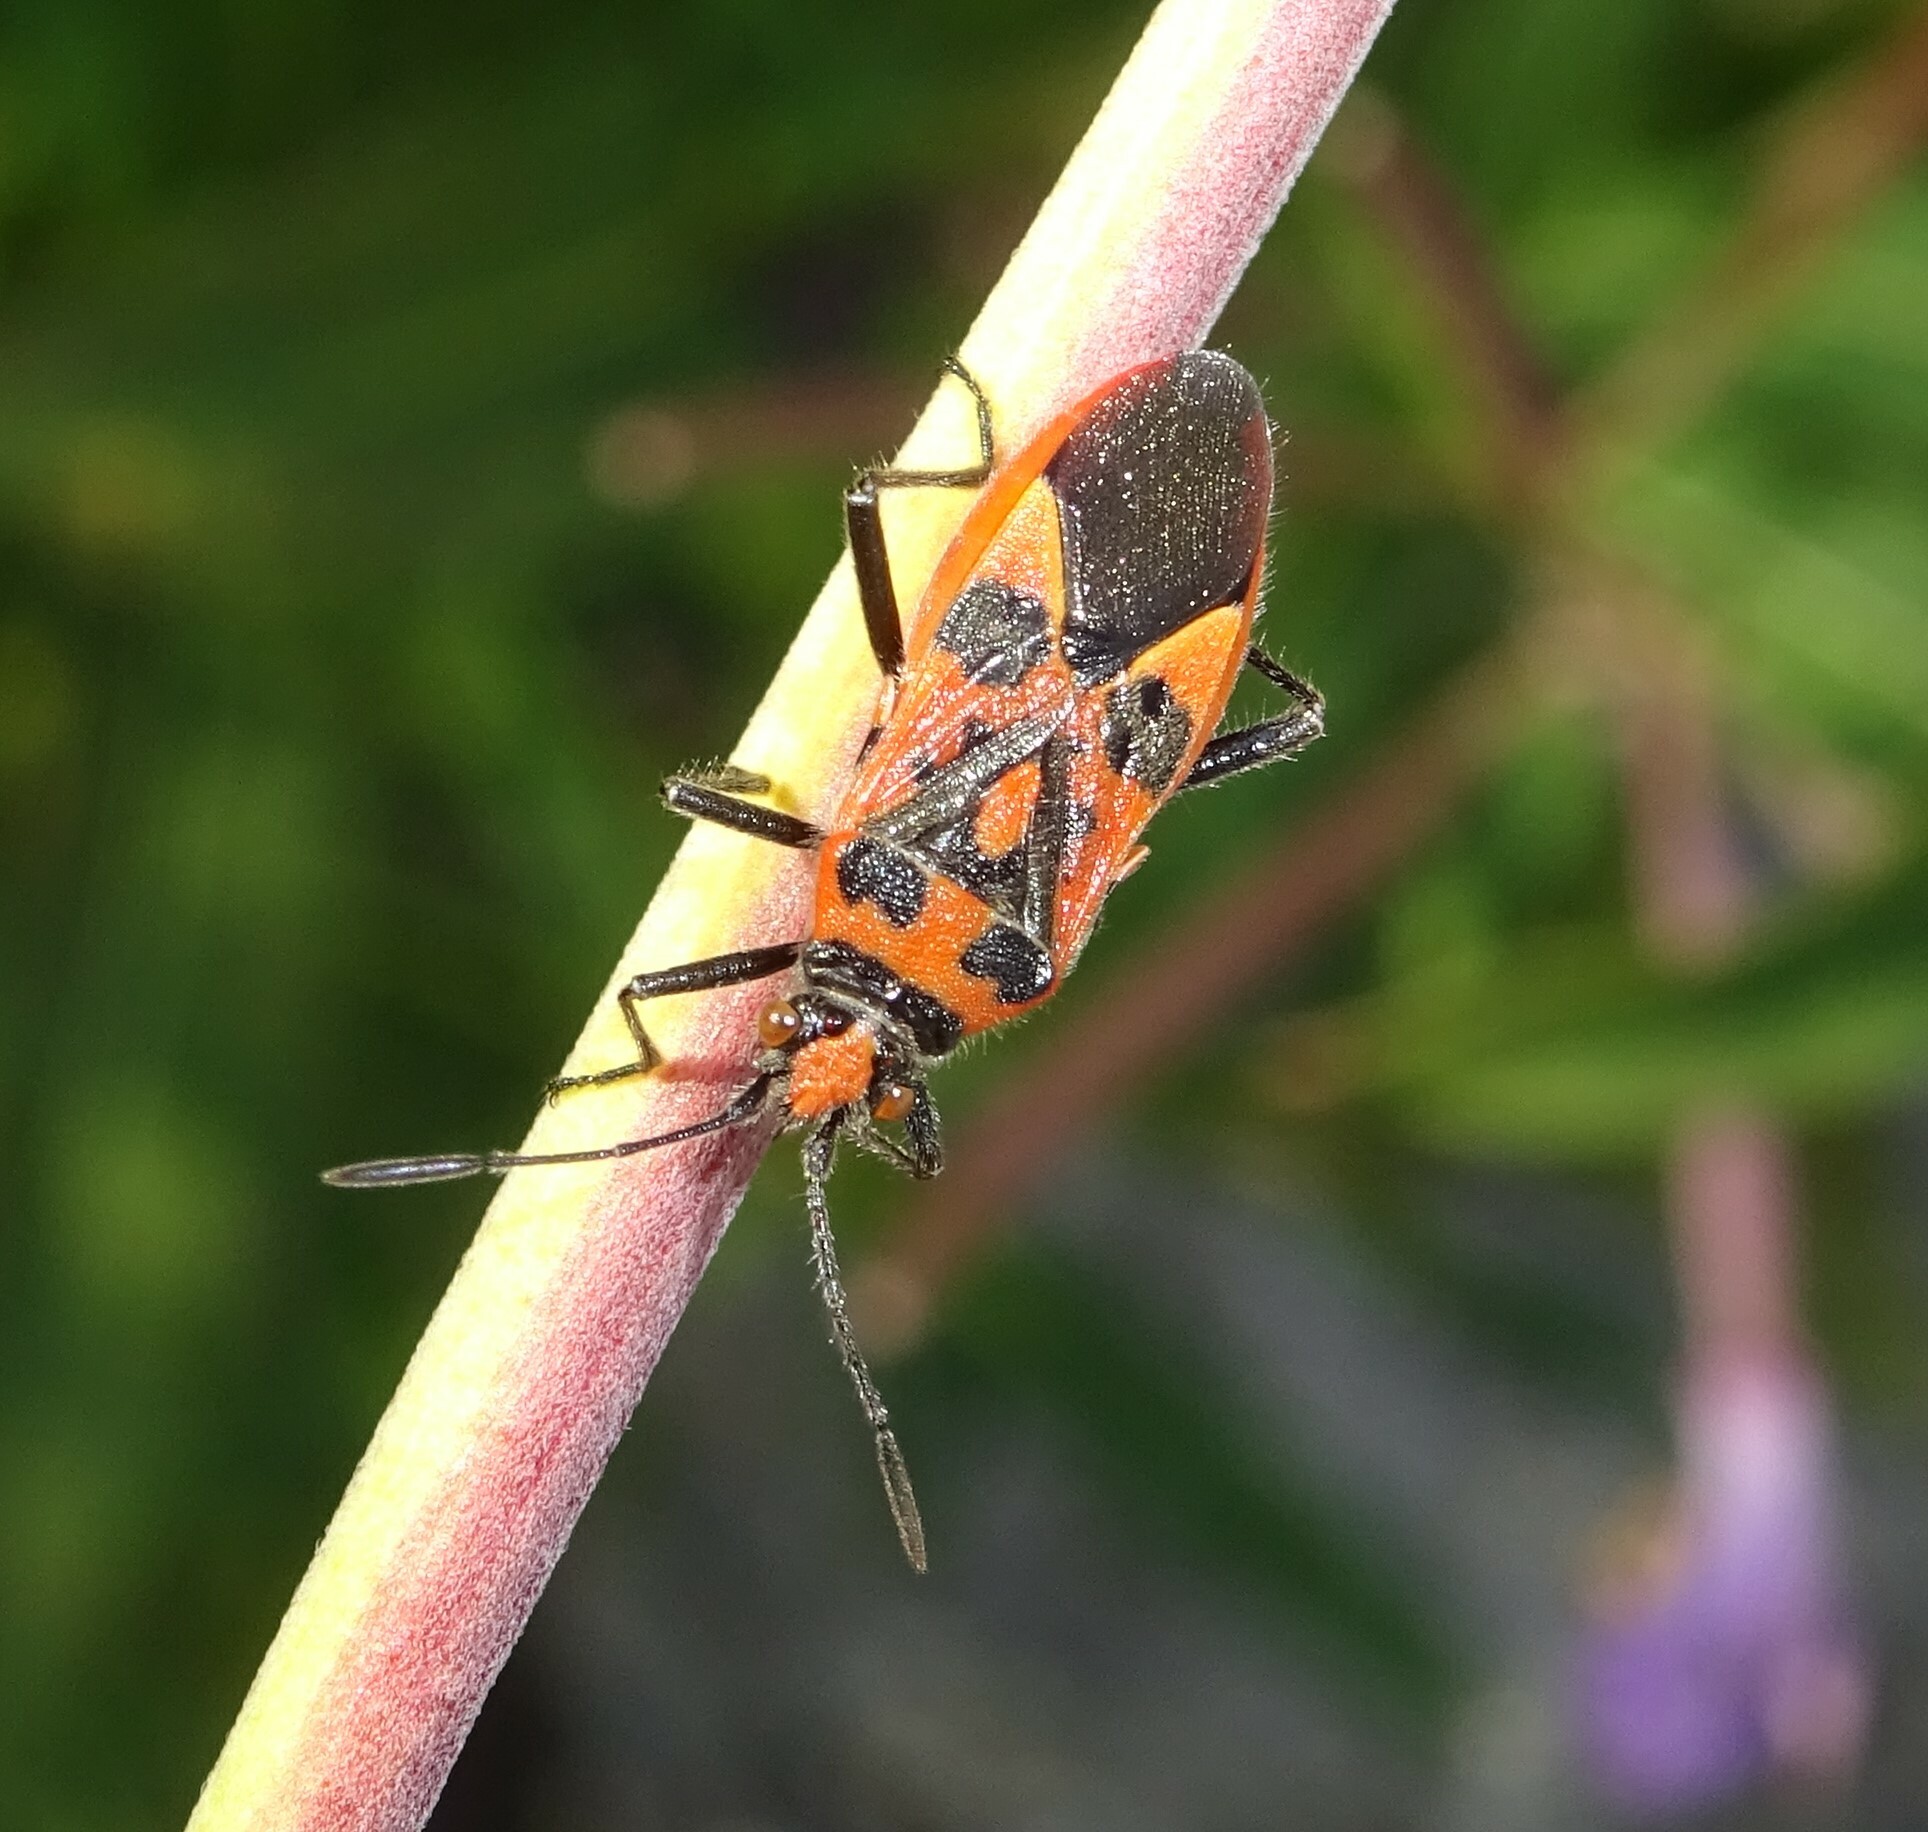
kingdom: Animalia
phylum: Arthropoda
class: Insecta
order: Hemiptera
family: Rhopalidae
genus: Corizus
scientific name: Corizus hyoscyami
